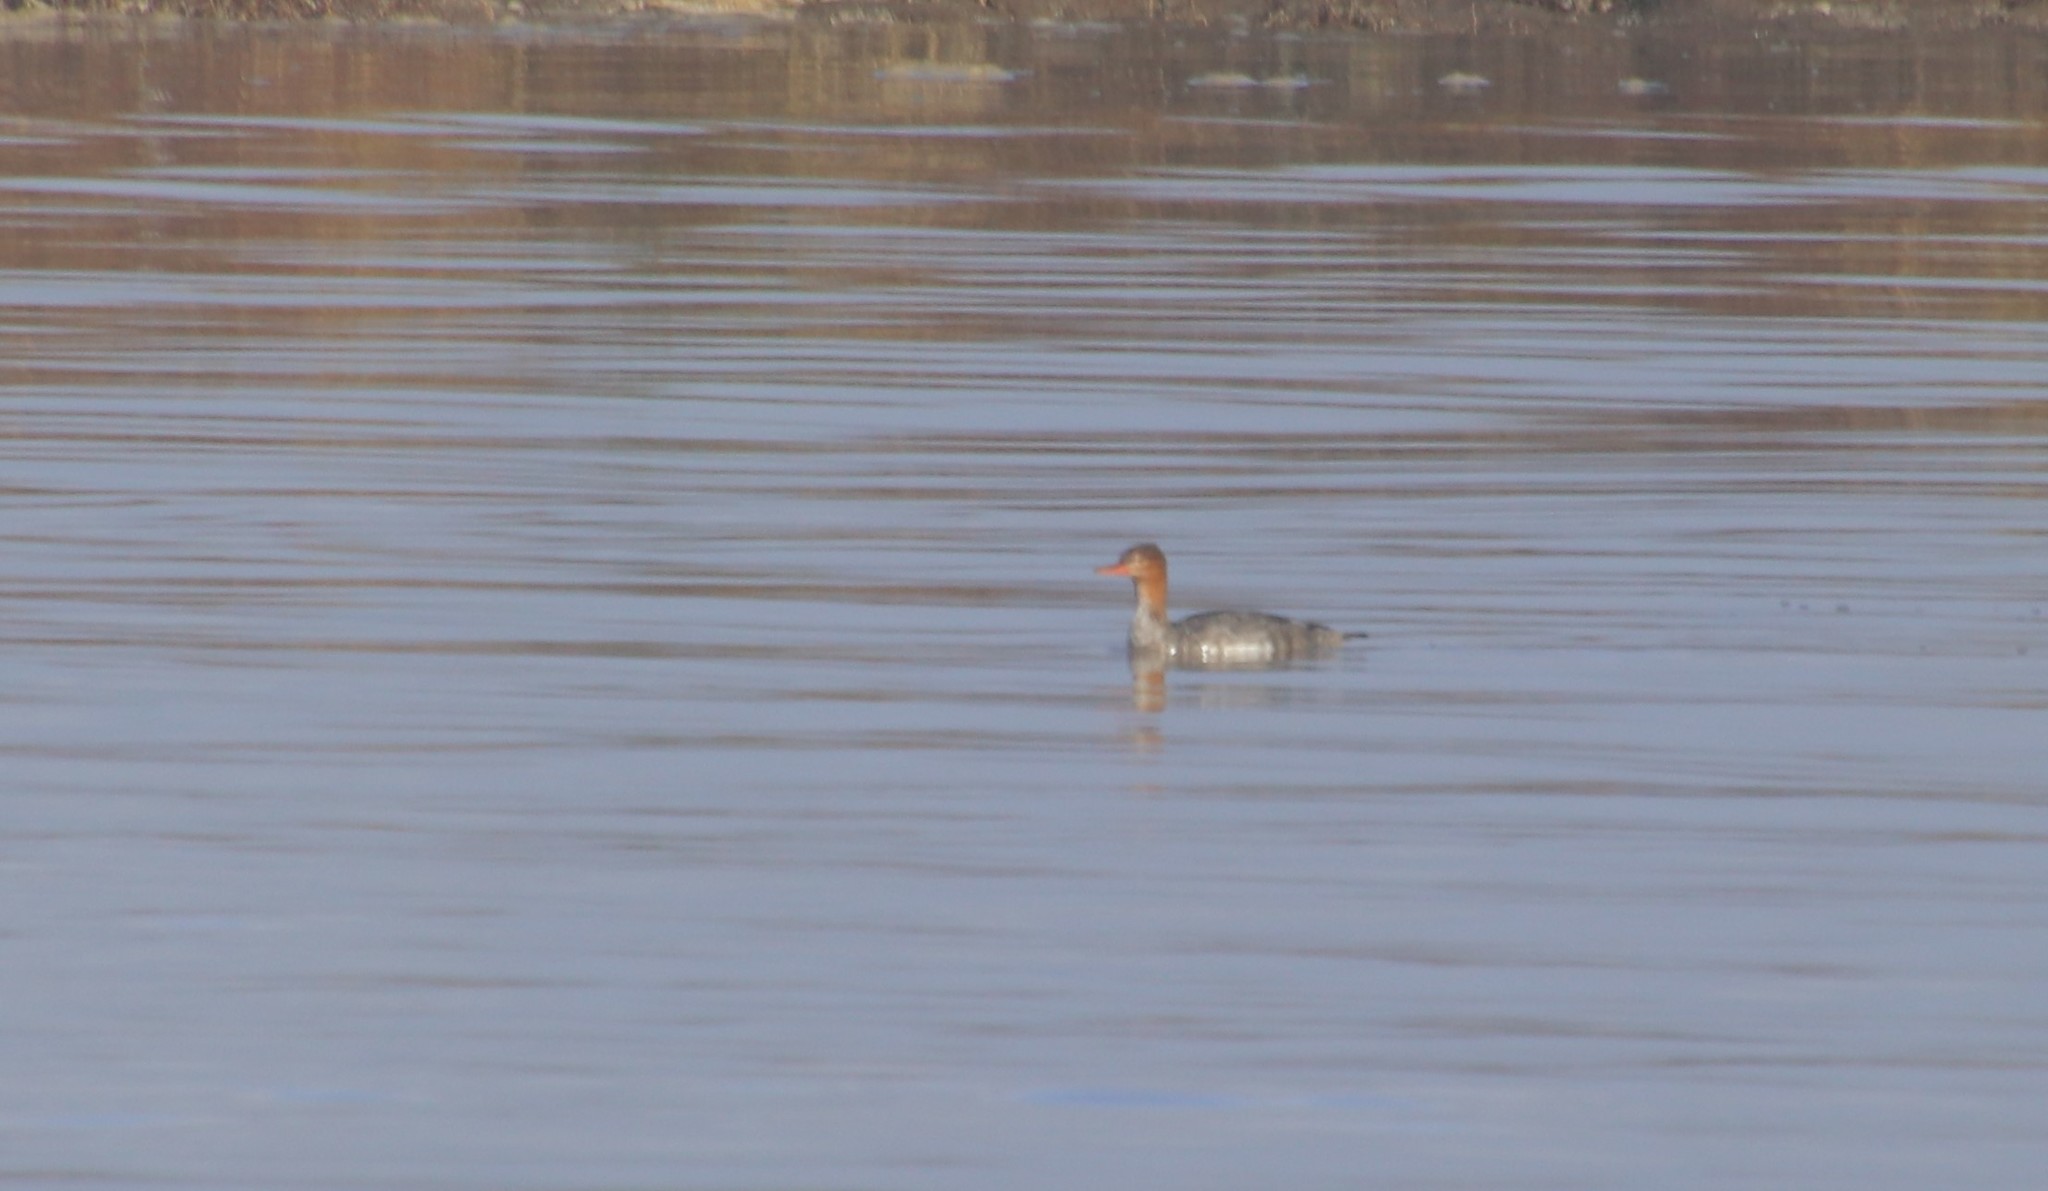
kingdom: Animalia
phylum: Chordata
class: Aves
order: Anseriformes
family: Anatidae
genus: Mergus
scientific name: Mergus serrator
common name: Red-breasted merganser
